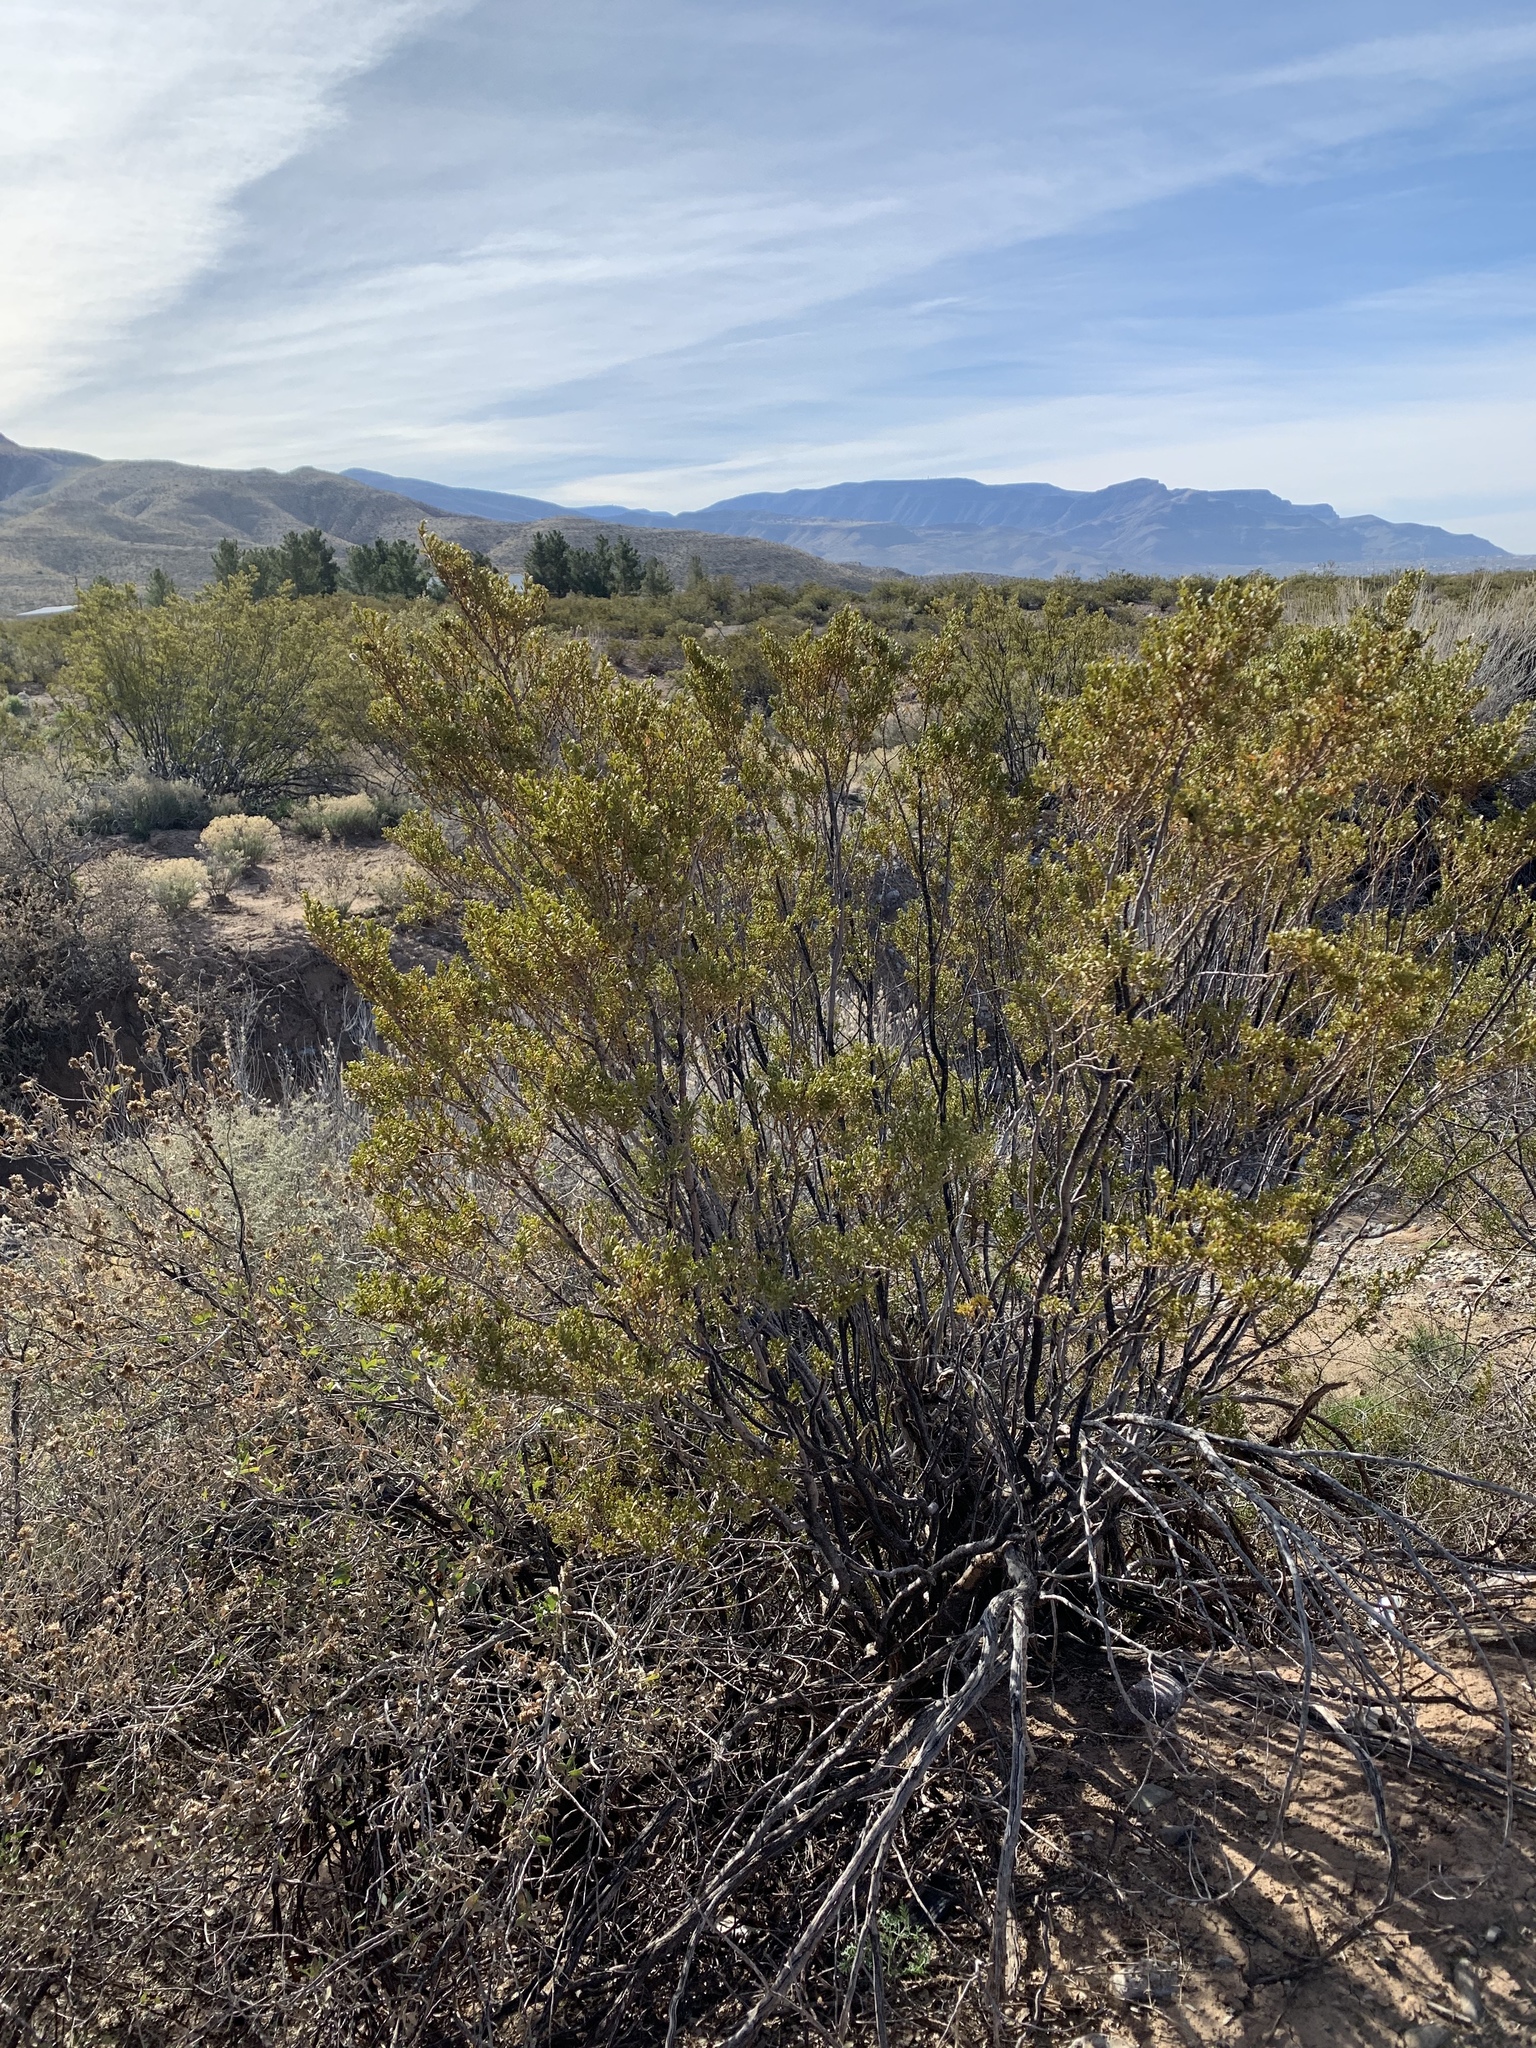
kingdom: Plantae
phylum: Tracheophyta
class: Magnoliopsida
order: Zygophyllales
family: Zygophyllaceae
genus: Larrea
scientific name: Larrea tridentata
